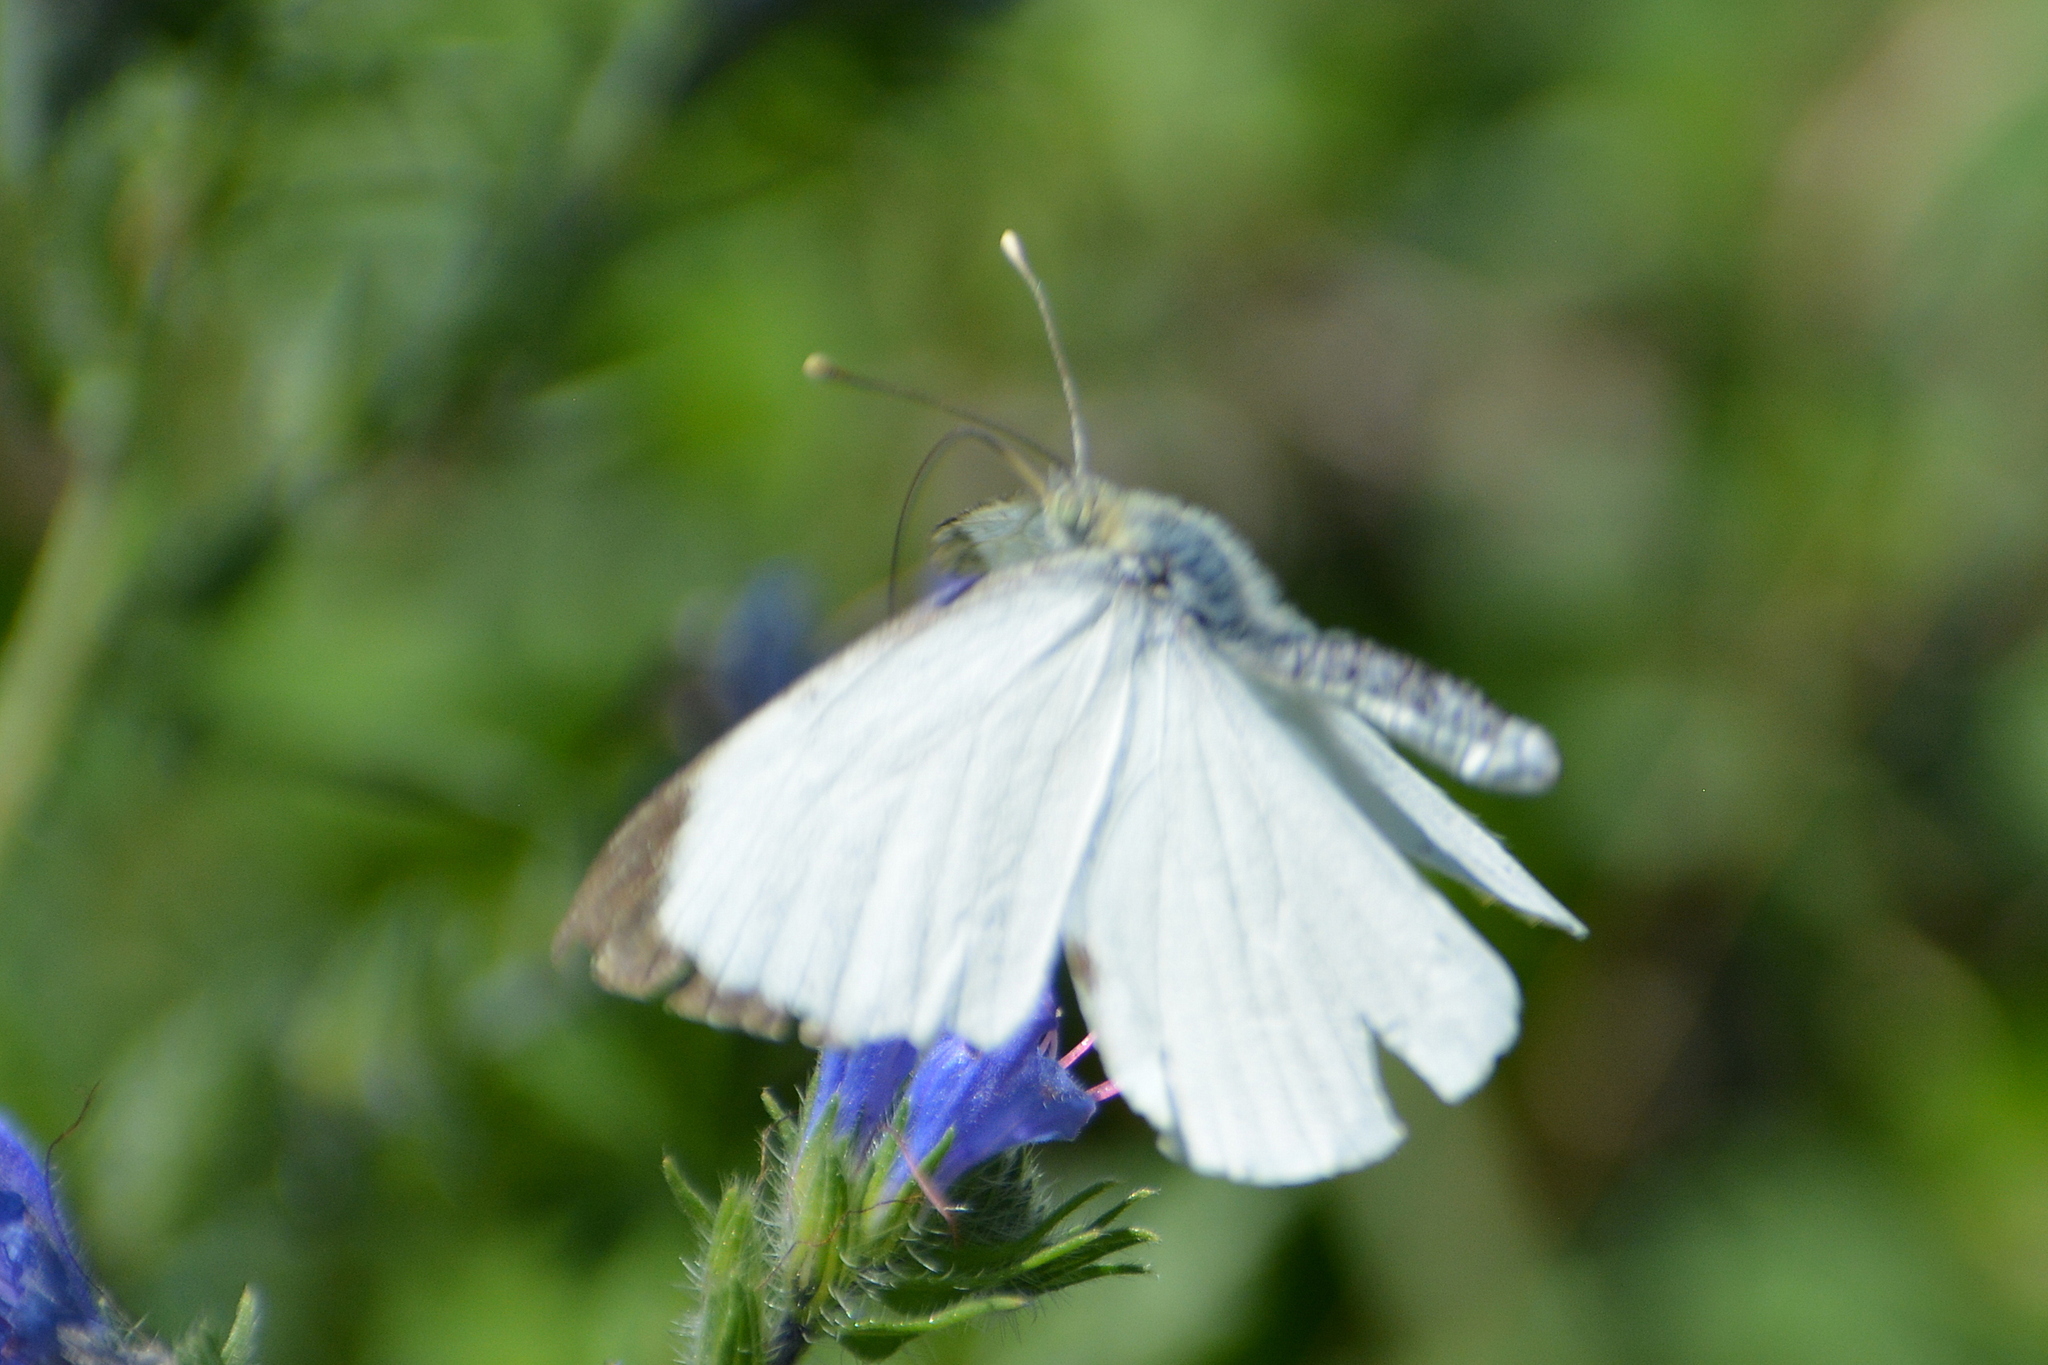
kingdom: Animalia
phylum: Arthropoda
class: Insecta
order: Lepidoptera
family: Pieridae
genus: Pieris
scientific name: Pieris brassicae
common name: Large white
